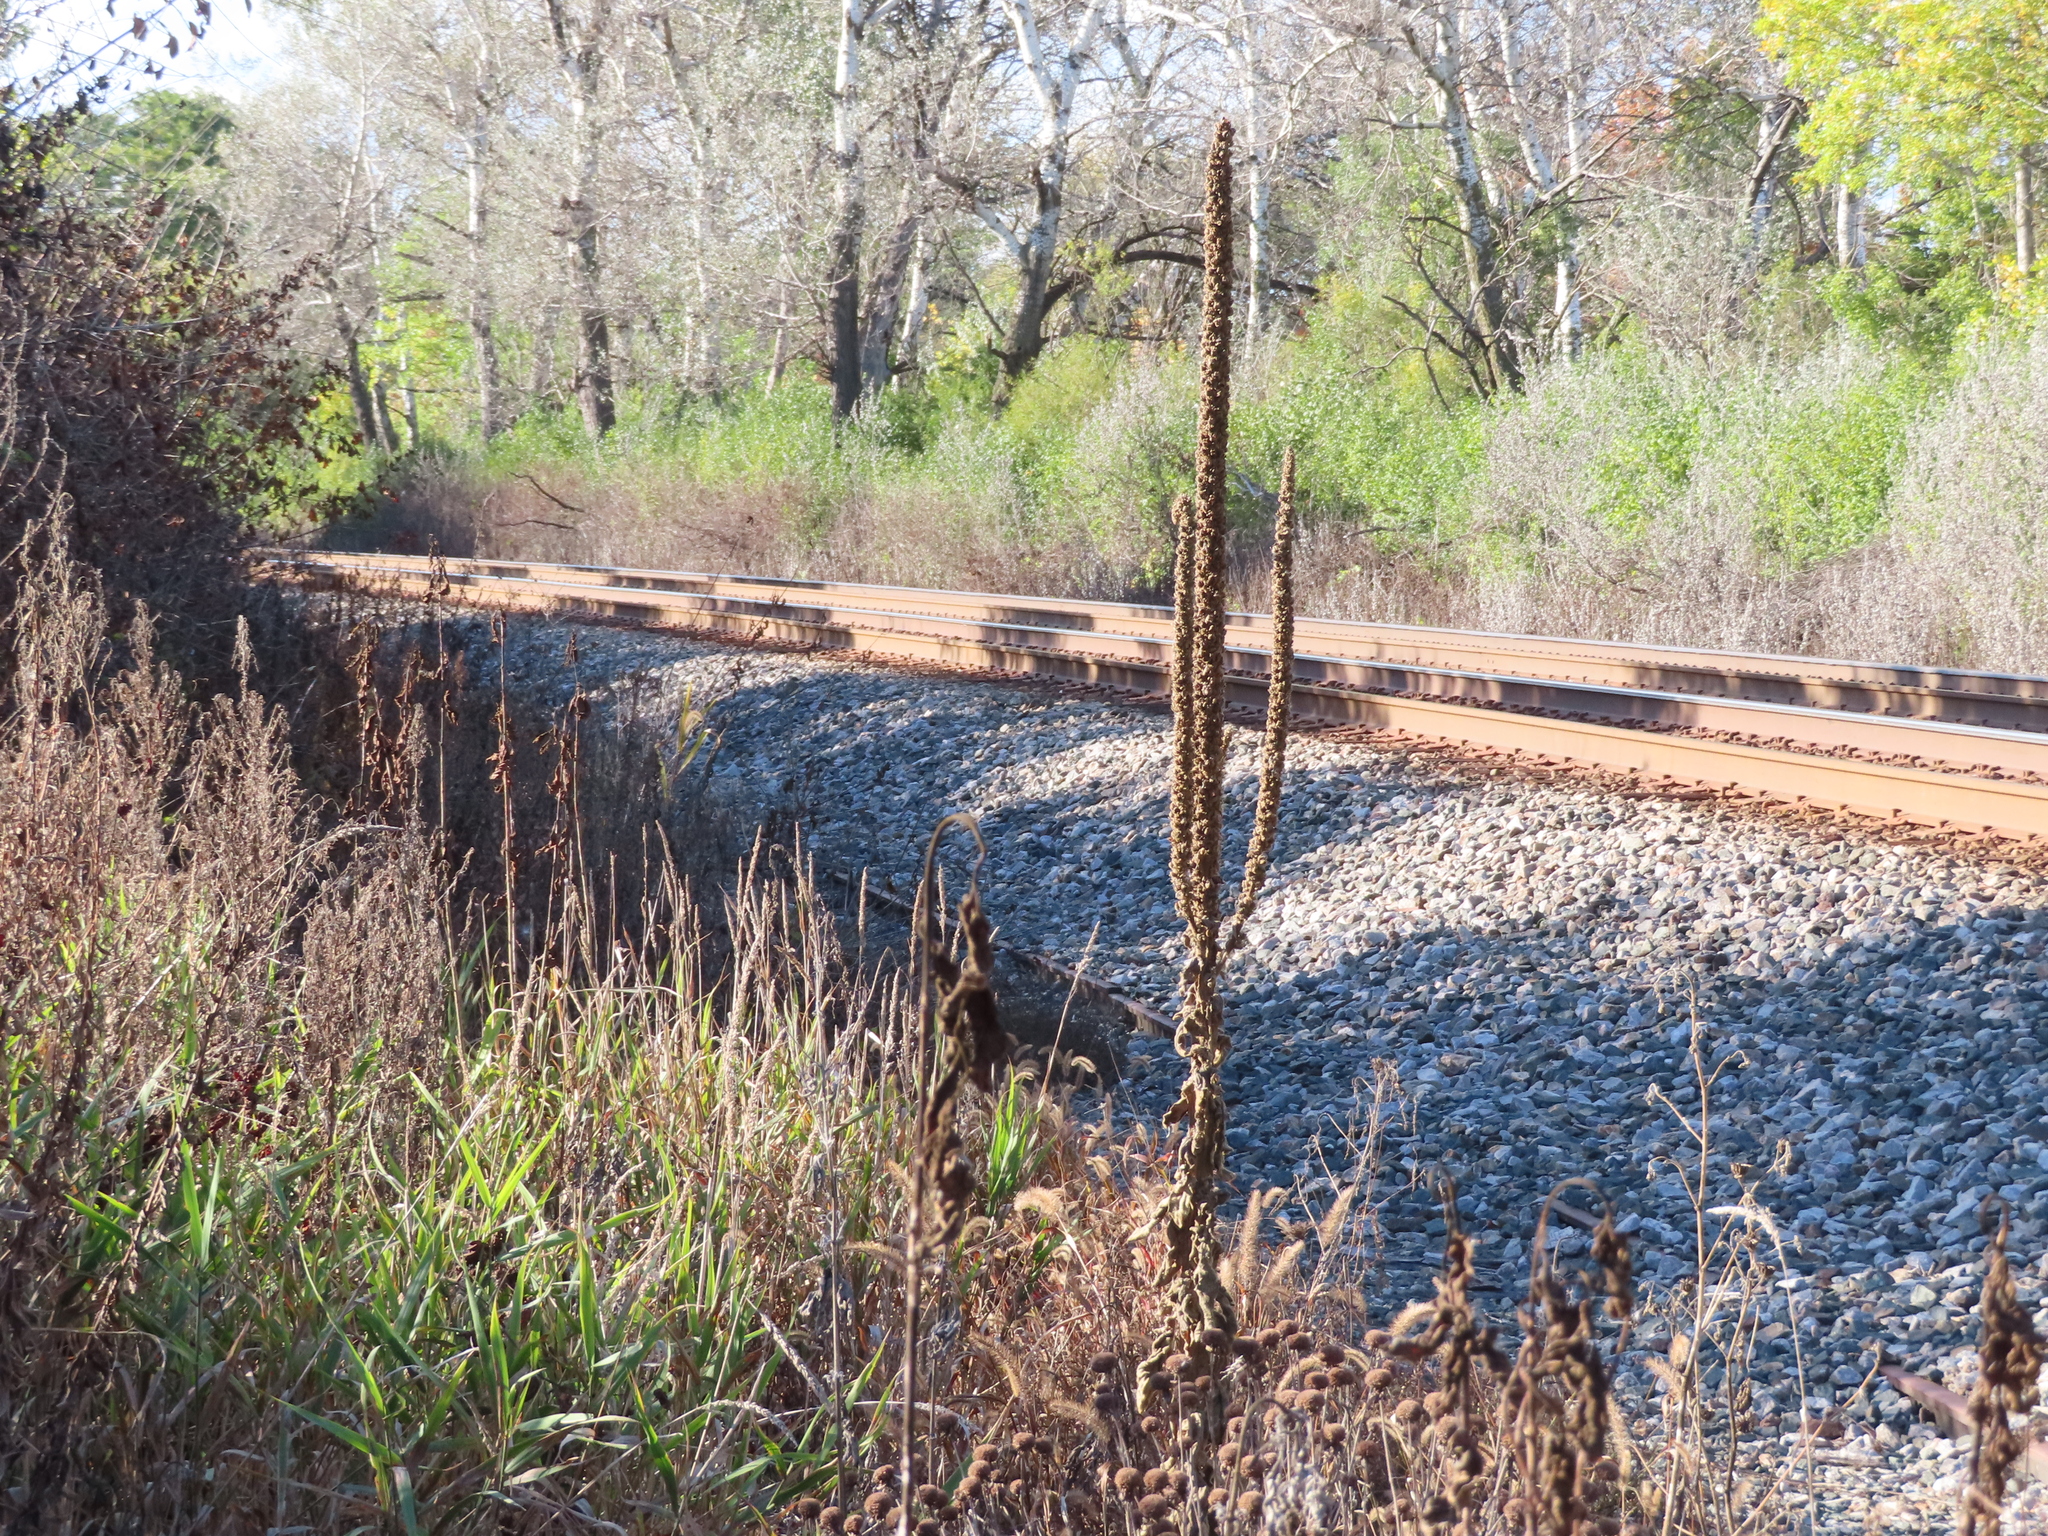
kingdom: Plantae
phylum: Tracheophyta
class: Magnoliopsida
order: Lamiales
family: Scrophulariaceae
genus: Verbascum
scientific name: Verbascum thapsus
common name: Common mullein
